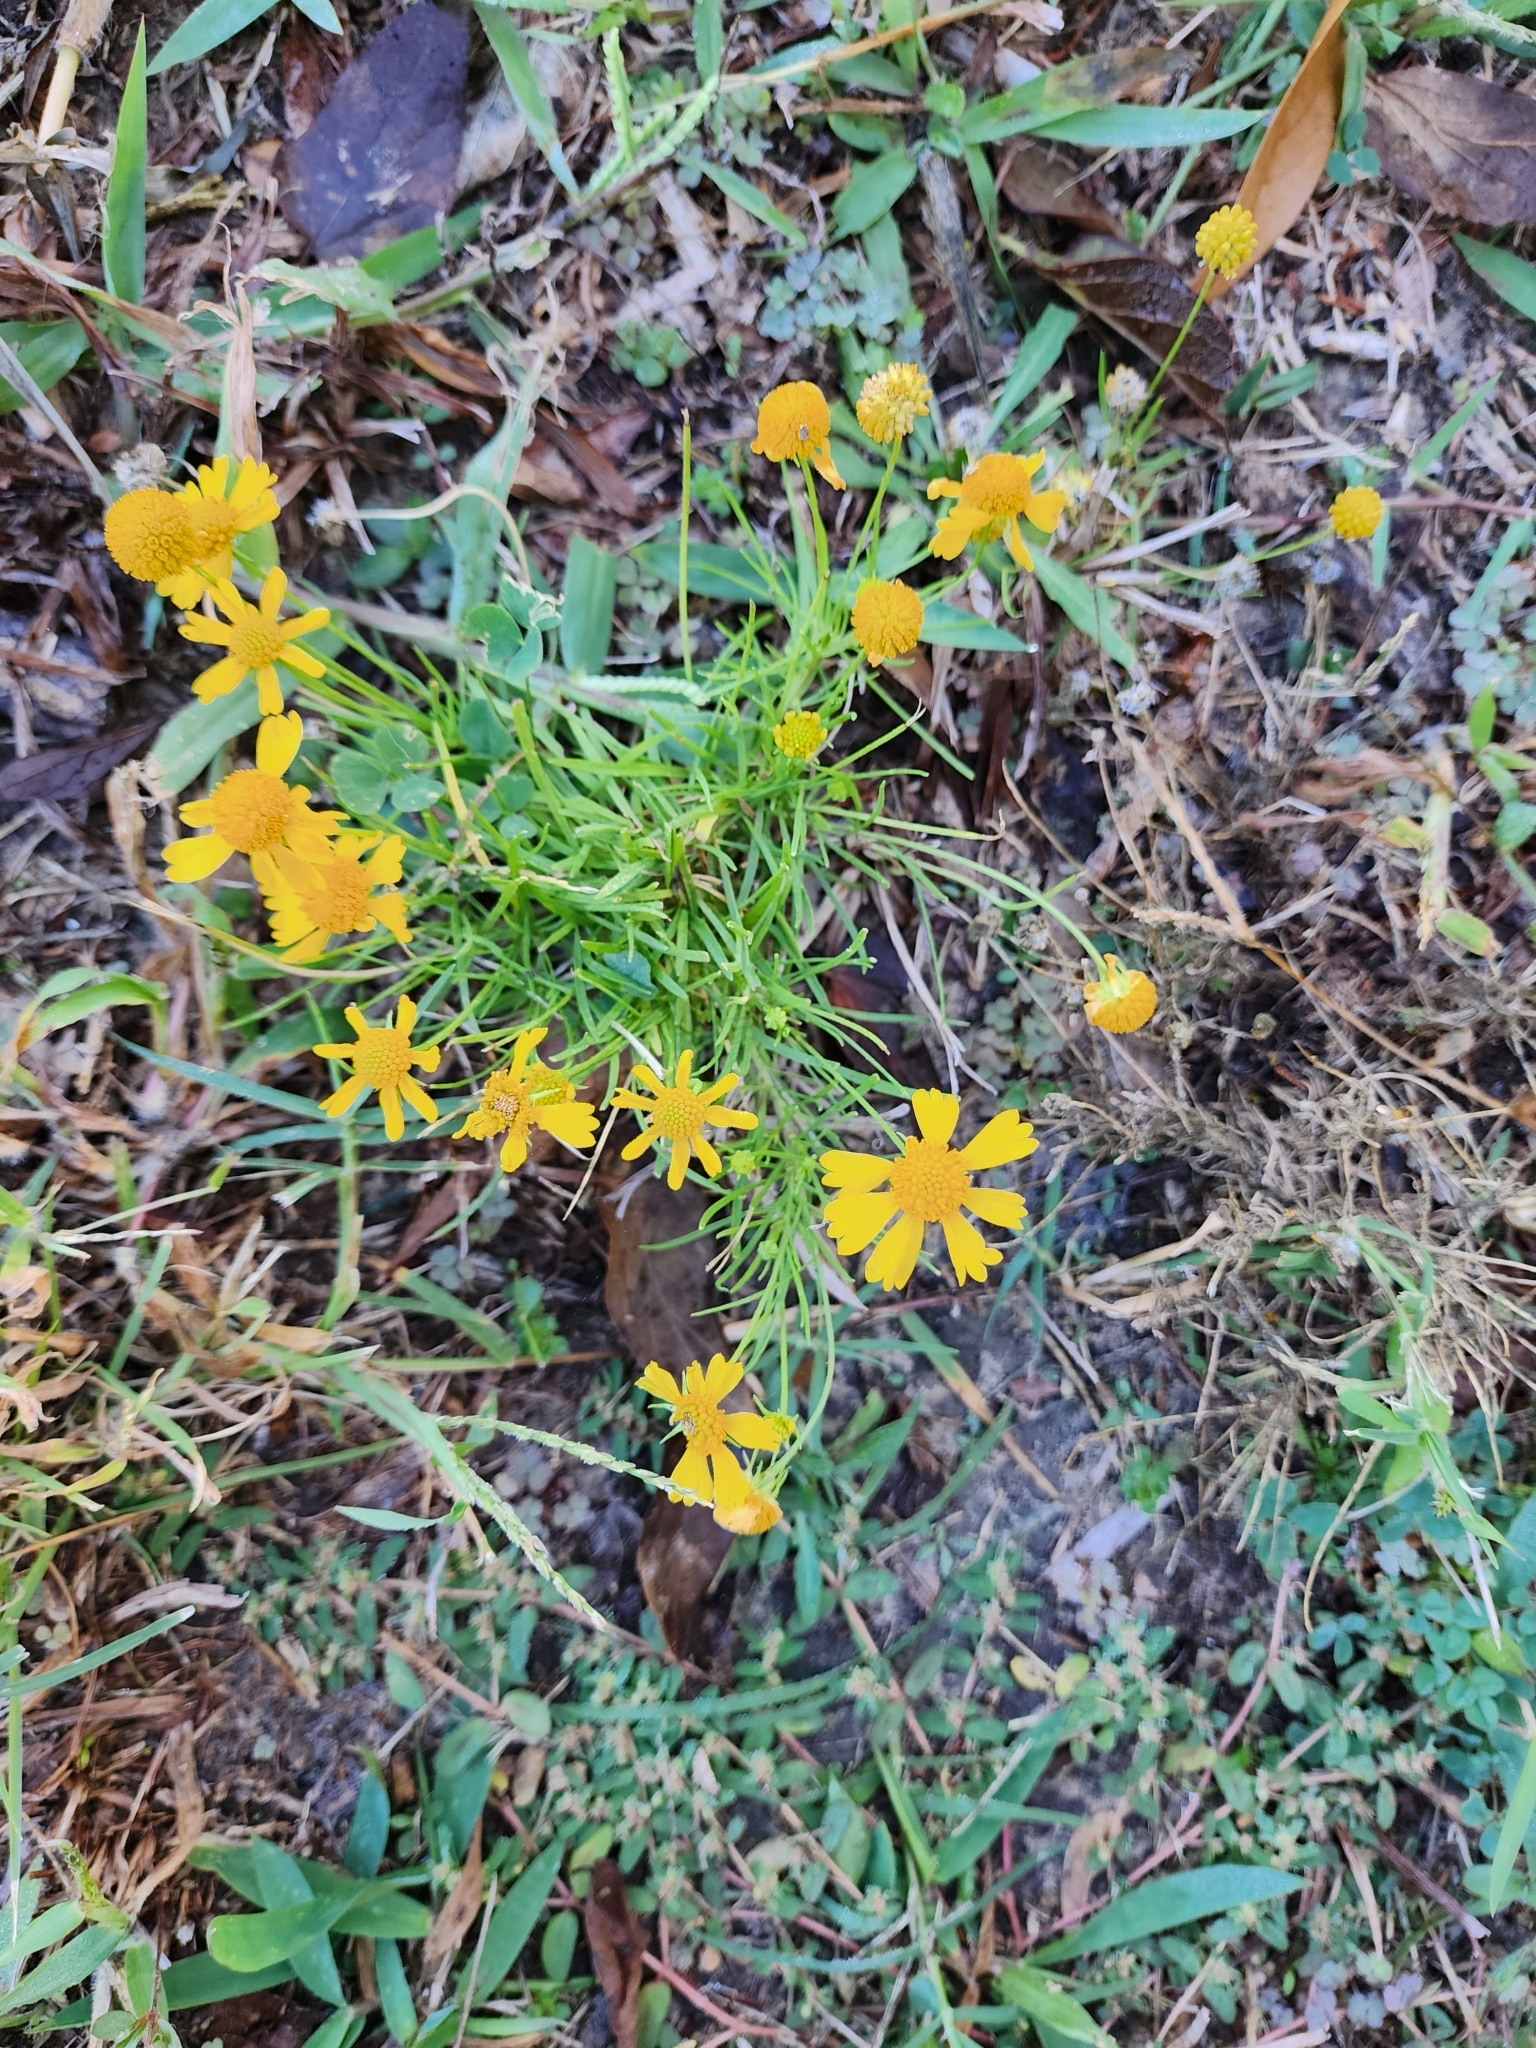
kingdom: Plantae
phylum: Tracheophyta
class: Magnoliopsida
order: Asterales
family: Asteraceae
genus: Helenium
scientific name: Helenium amarum
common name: Bitter sneezeweed
